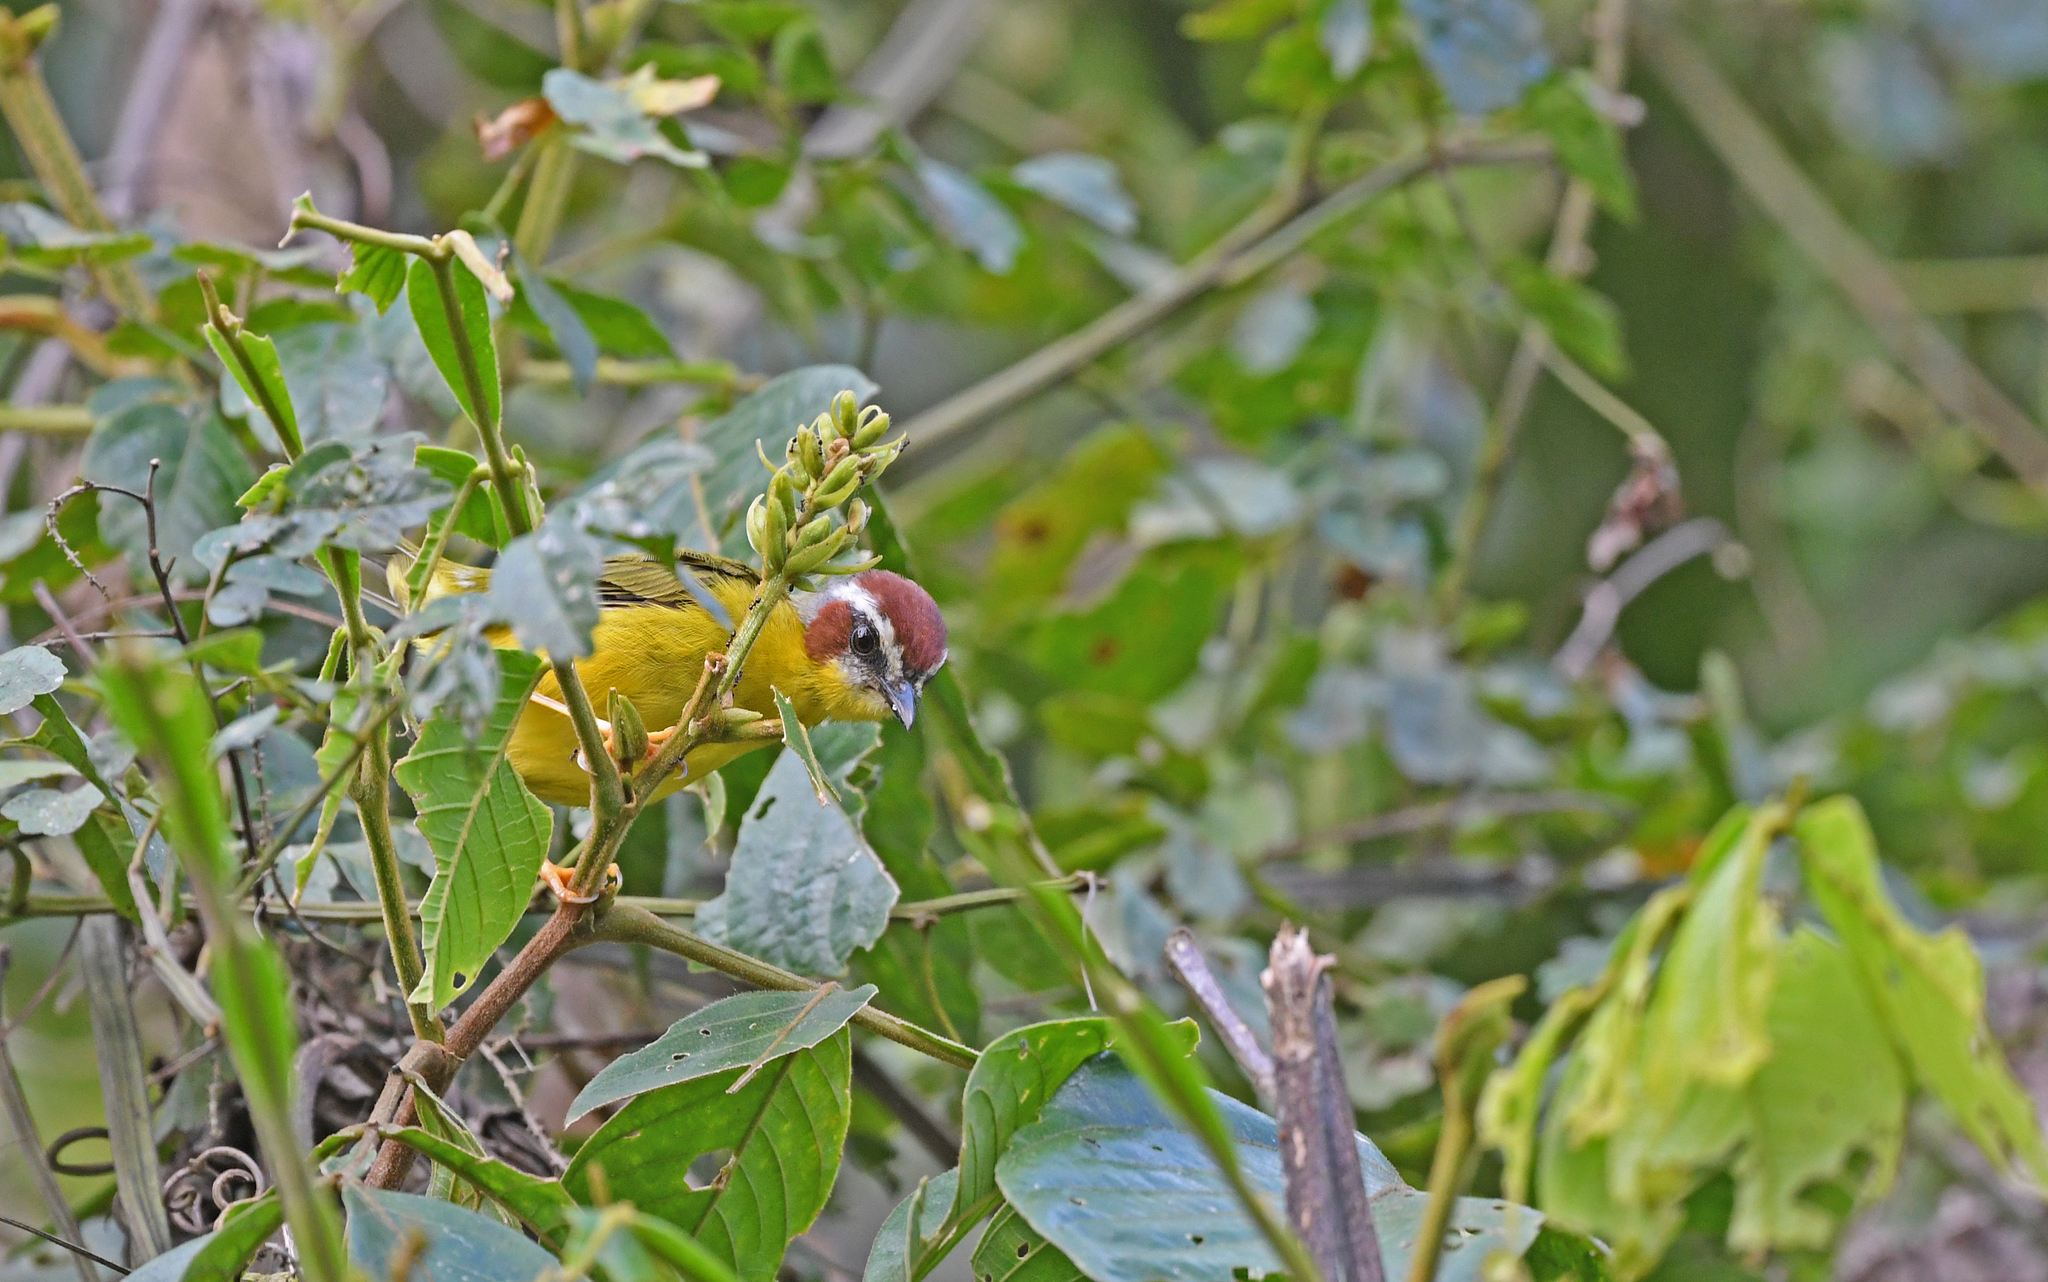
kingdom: Animalia
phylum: Chordata
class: Aves
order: Passeriformes
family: Parulidae
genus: Basileuterus
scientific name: Basileuterus rufifrons
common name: Rufous-capped warbler
